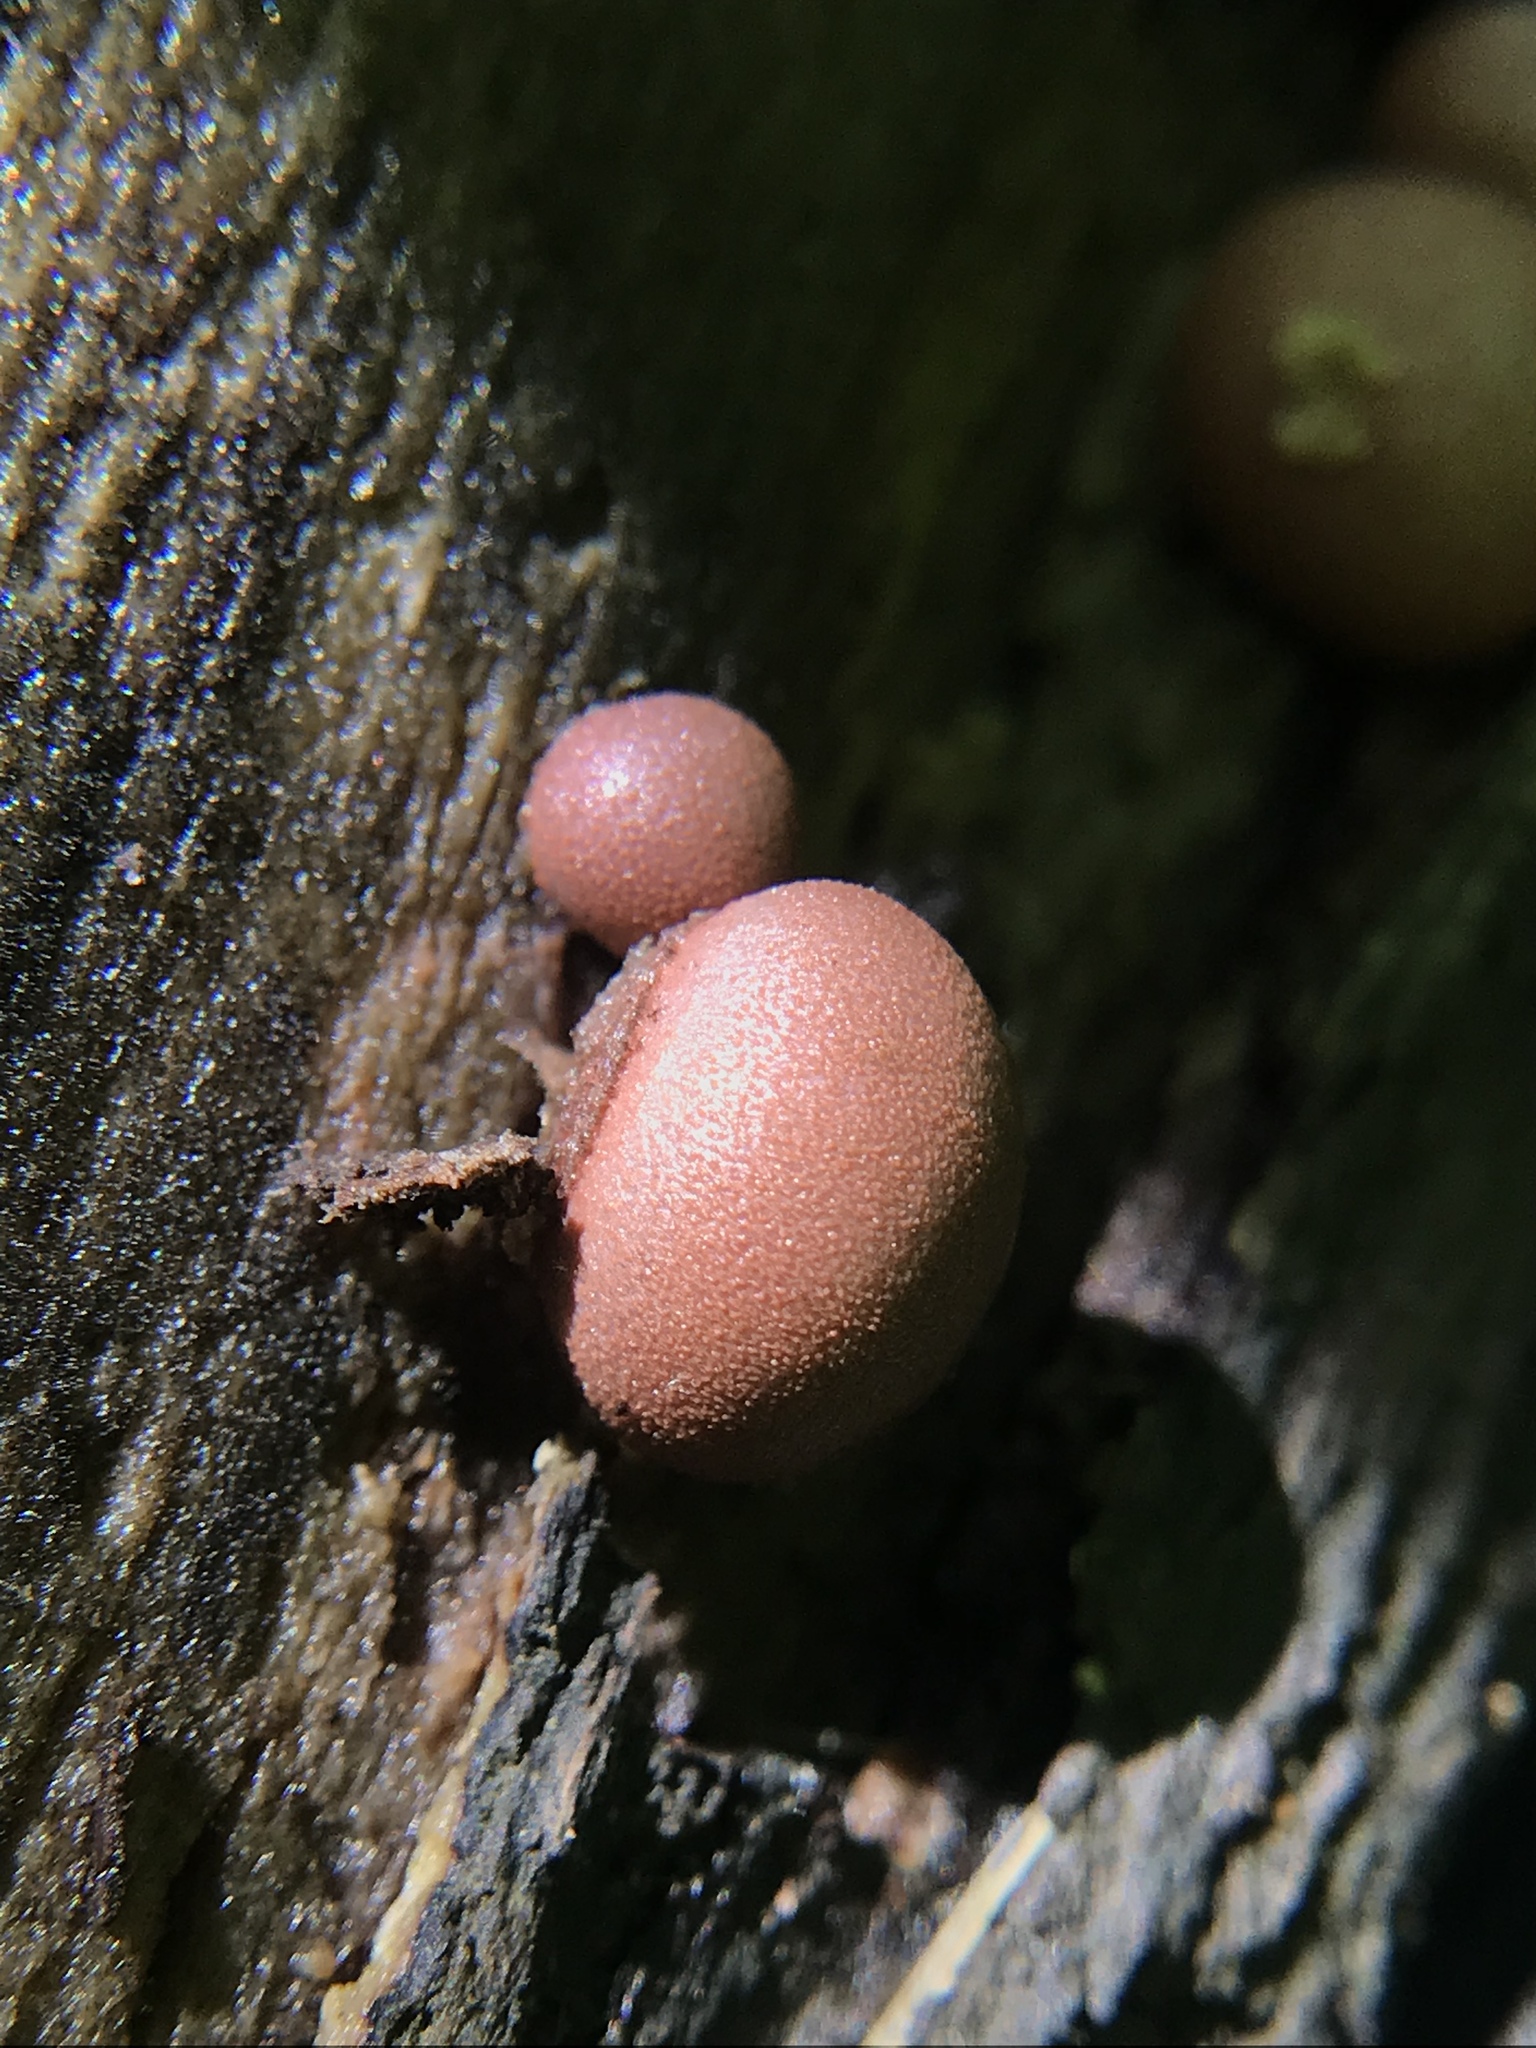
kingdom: Protozoa
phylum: Mycetozoa
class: Myxomycetes
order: Cribrariales
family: Tubiferaceae
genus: Lycogala
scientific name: Lycogala epidendrum
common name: Wolf's milk
